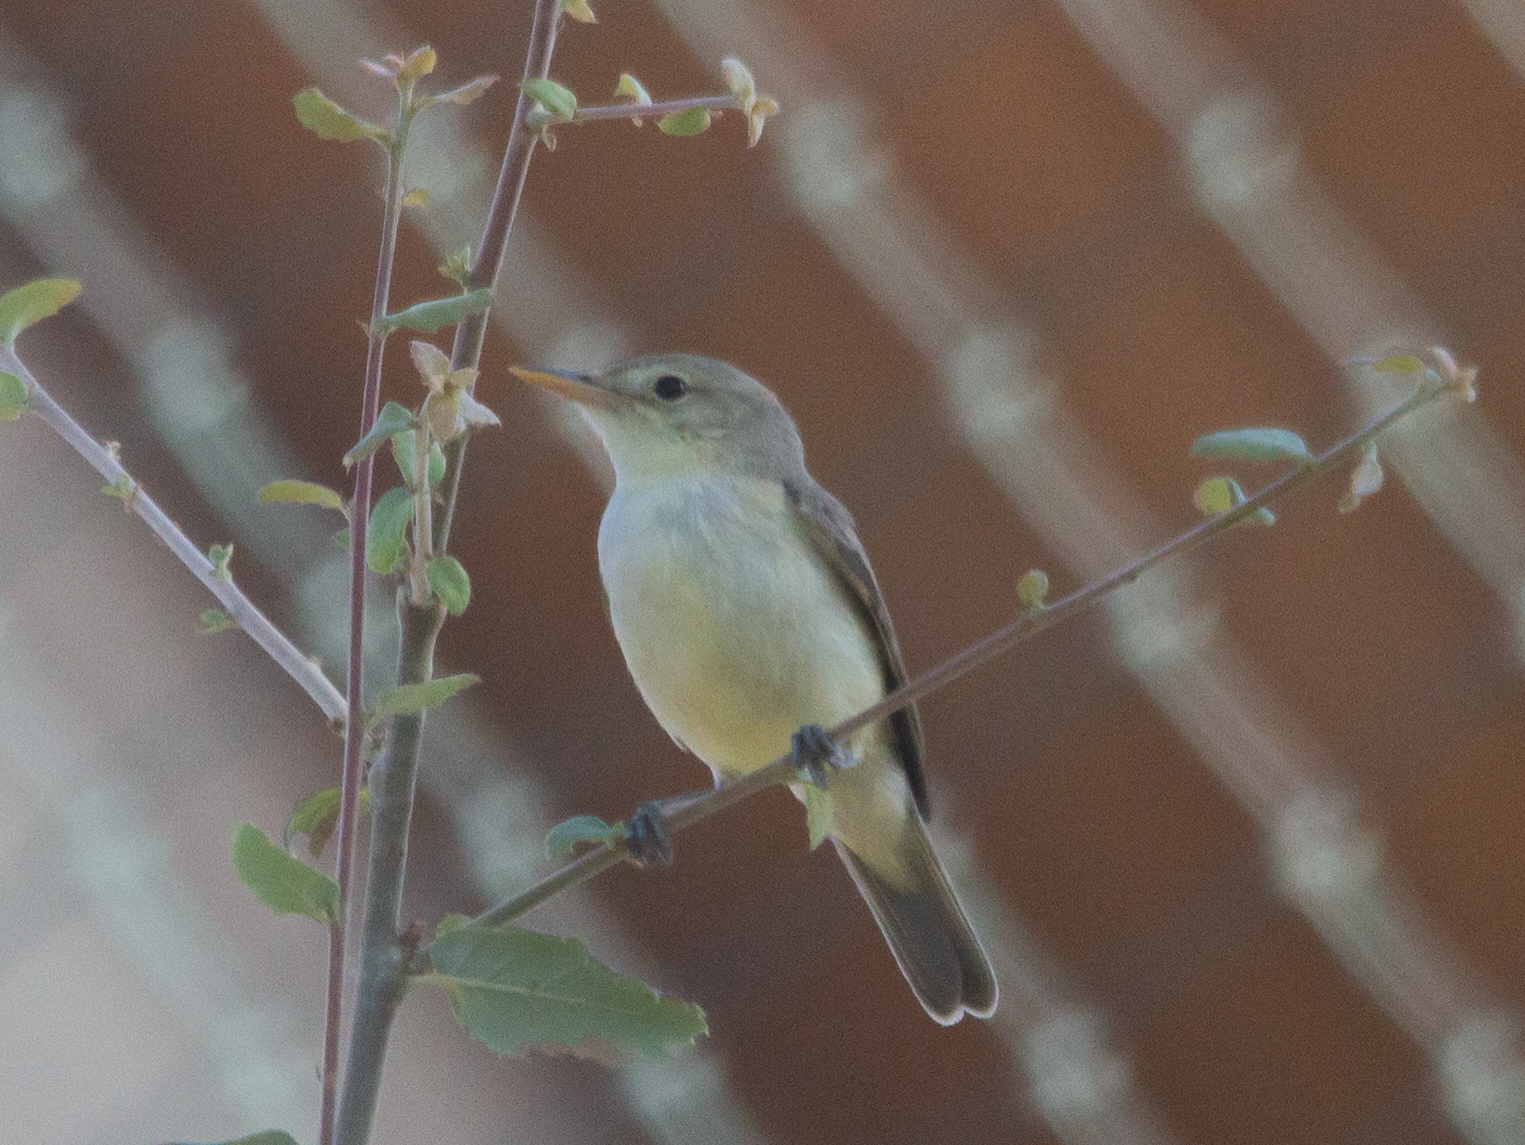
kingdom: Animalia
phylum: Chordata
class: Aves
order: Passeriformes
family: Acrocephalidae
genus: Hippolais
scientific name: Hippolais polyglotta
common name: Melodious warbler
